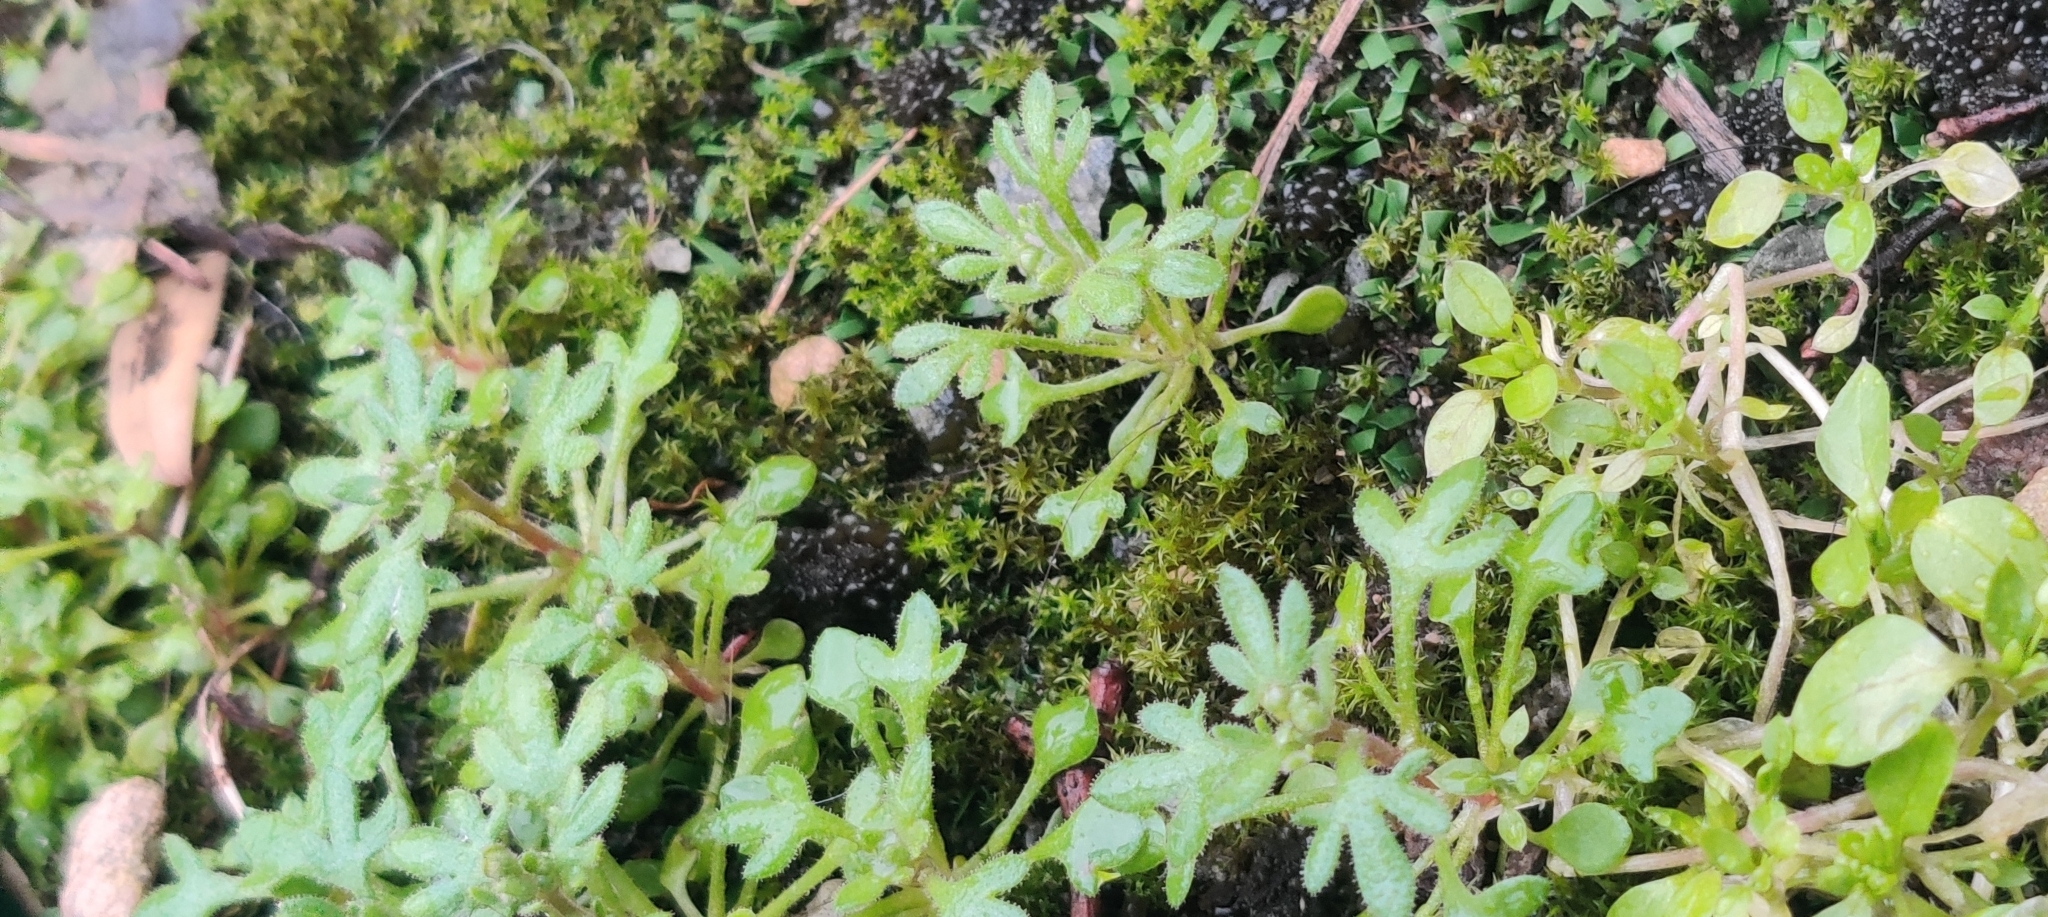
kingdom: Plantae
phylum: Tracheophyta
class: Magnoliopsida
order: Saxifragales
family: Saxifragaceae
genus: Saxifraga
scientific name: Saxifraga tridactylites
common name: Rue-leaved saxifrage
